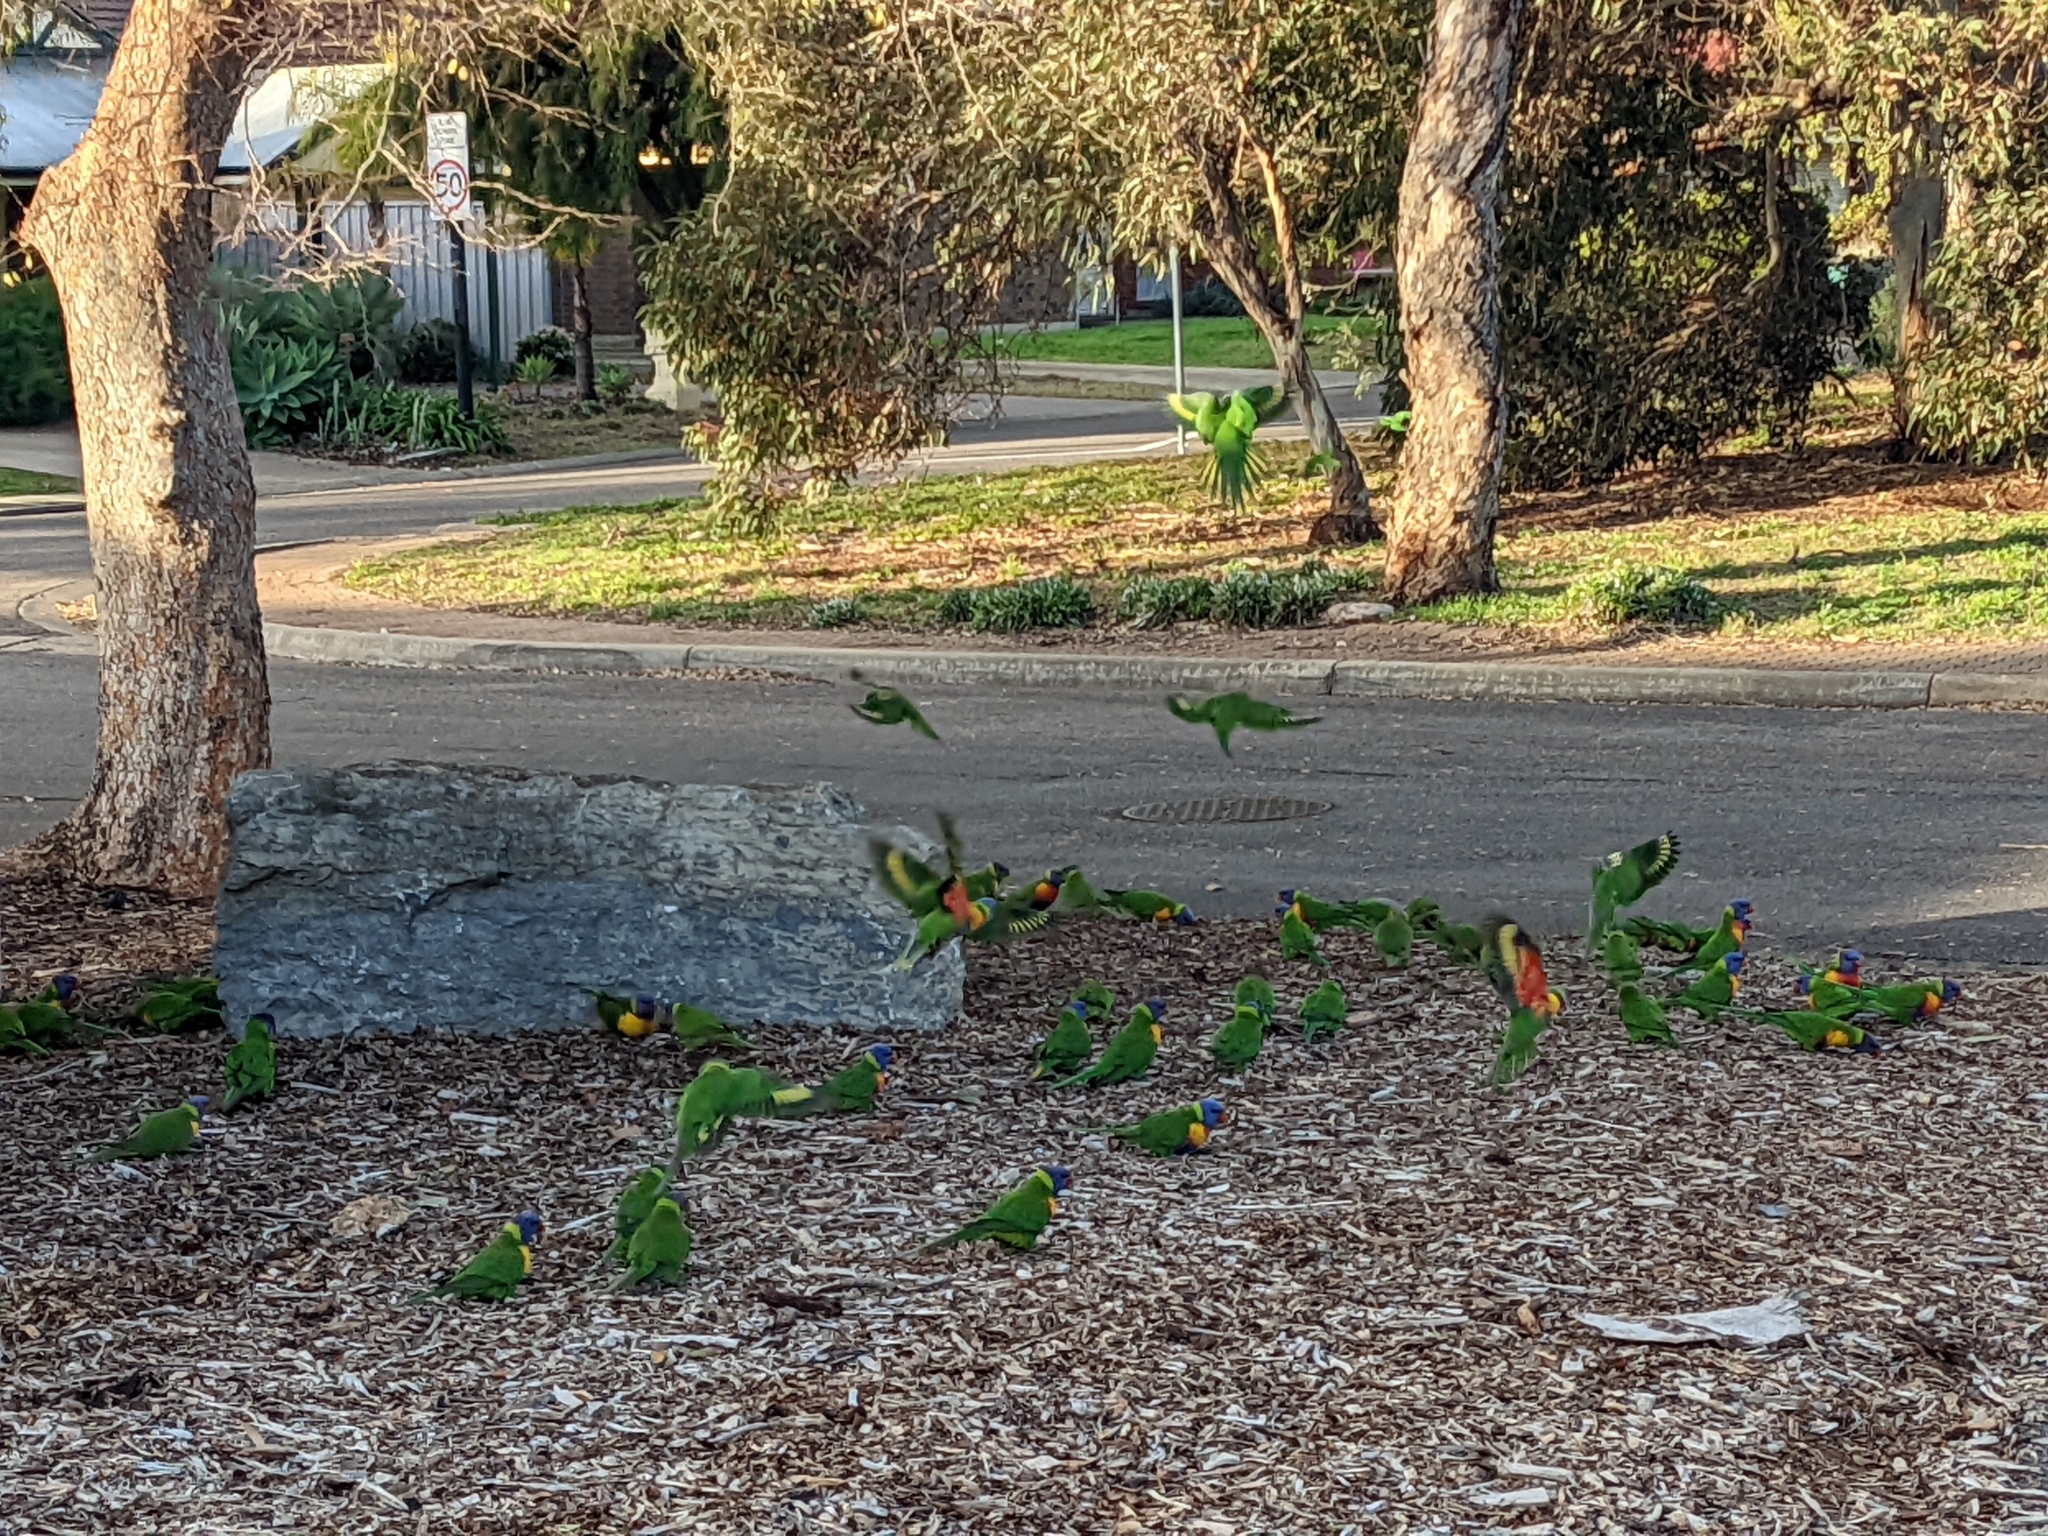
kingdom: Animalia
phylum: Chordata
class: Aves
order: Psittaciformes
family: Psittacidae
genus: Trichoglossus
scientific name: Trichoglossus haematodus
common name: Coconut lorikeet
